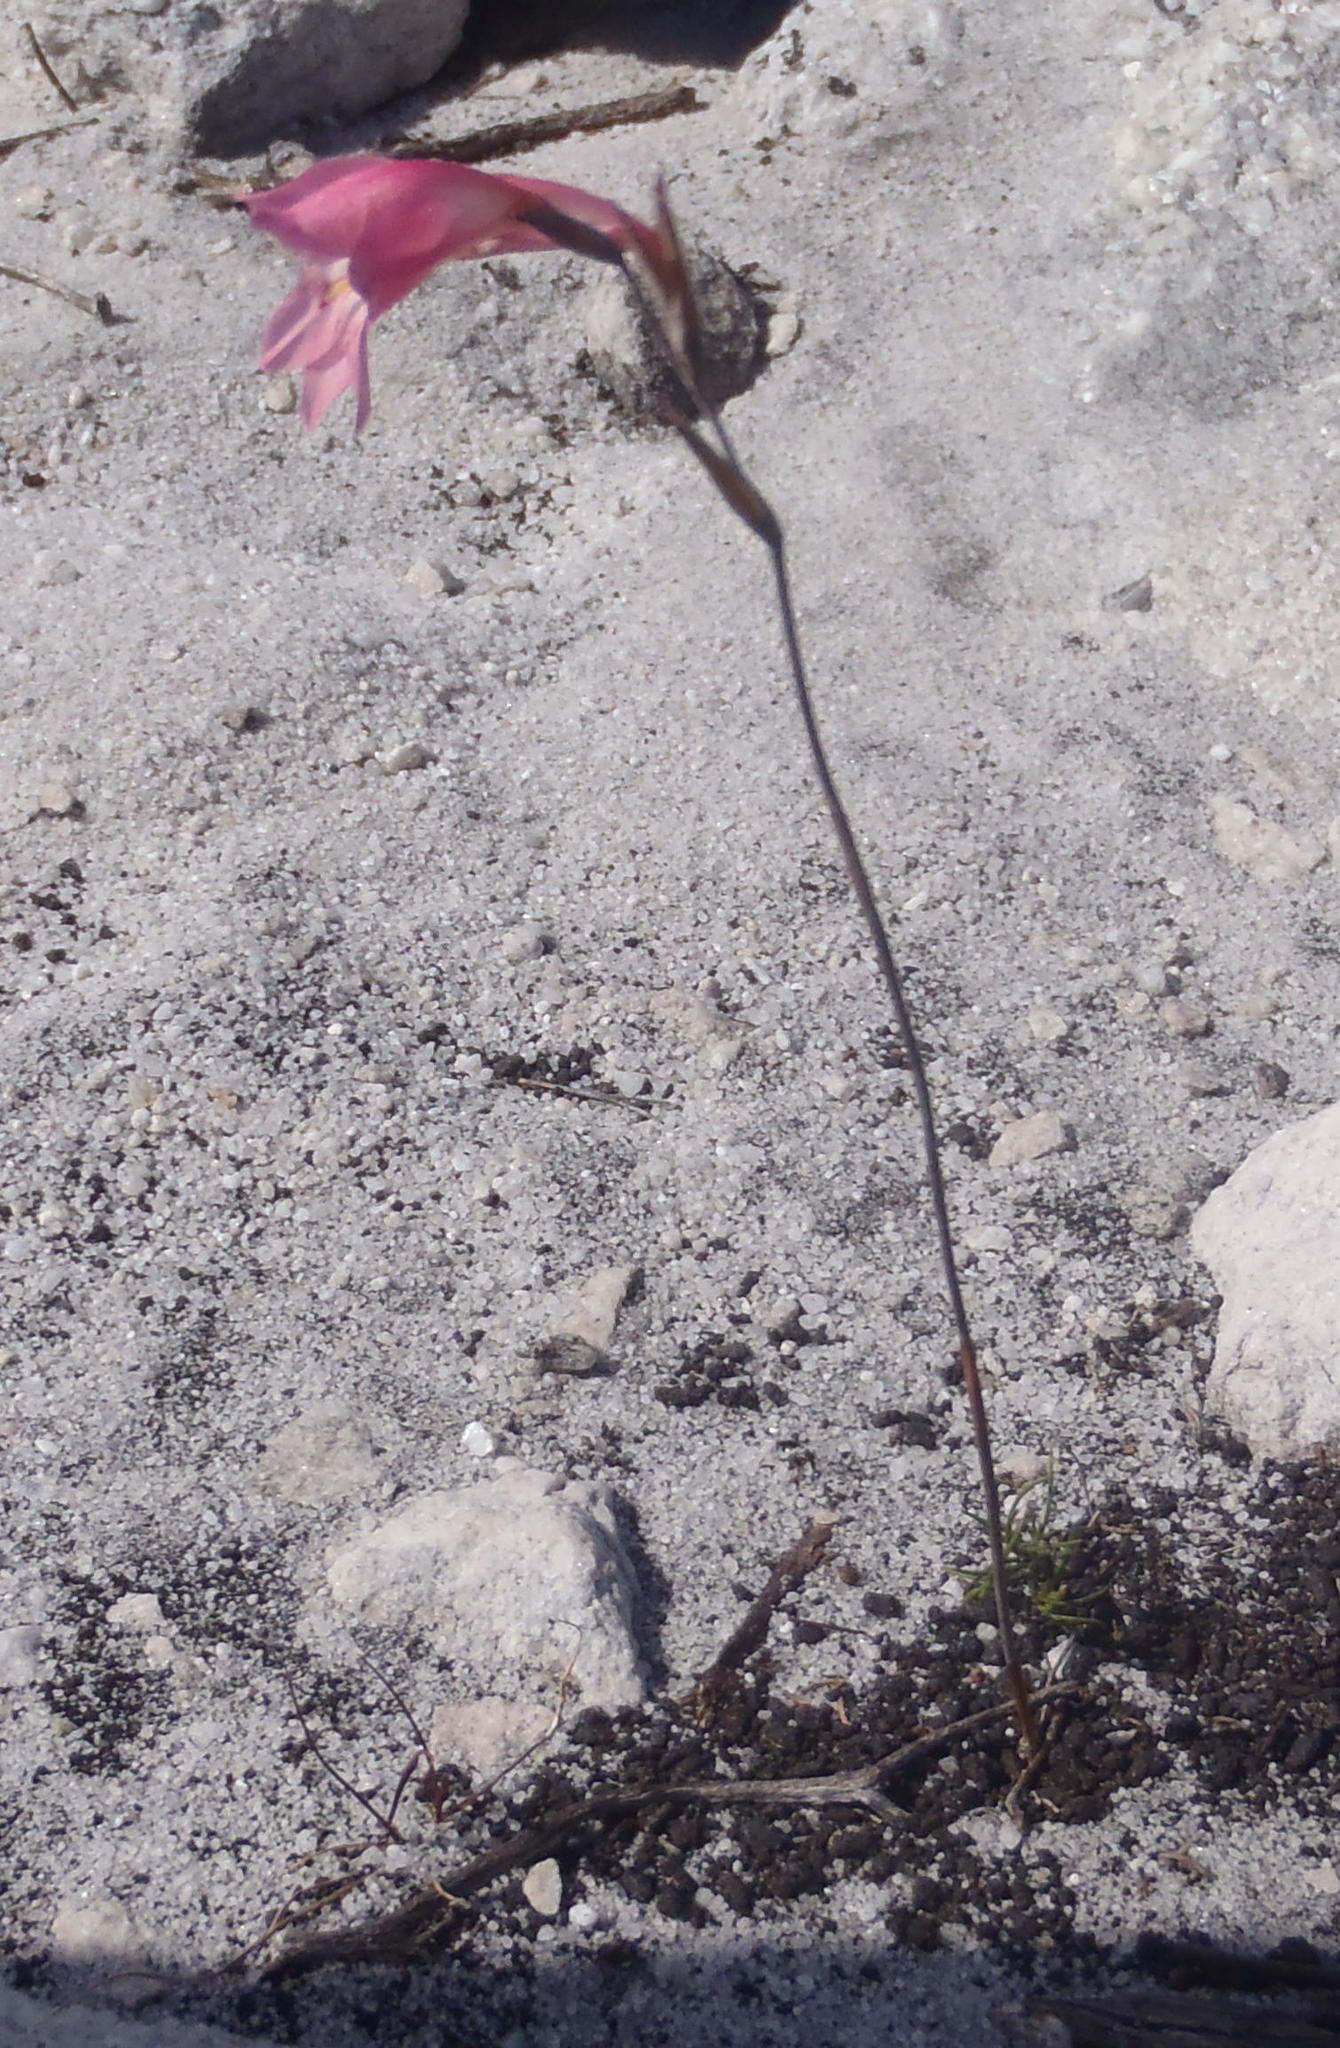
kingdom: Plantae
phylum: Tracheophyta
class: Liliopsida
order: Asparagales
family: Iridaceae
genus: Gladiolus
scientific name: Gladiolus brevifolius
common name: March pypie
